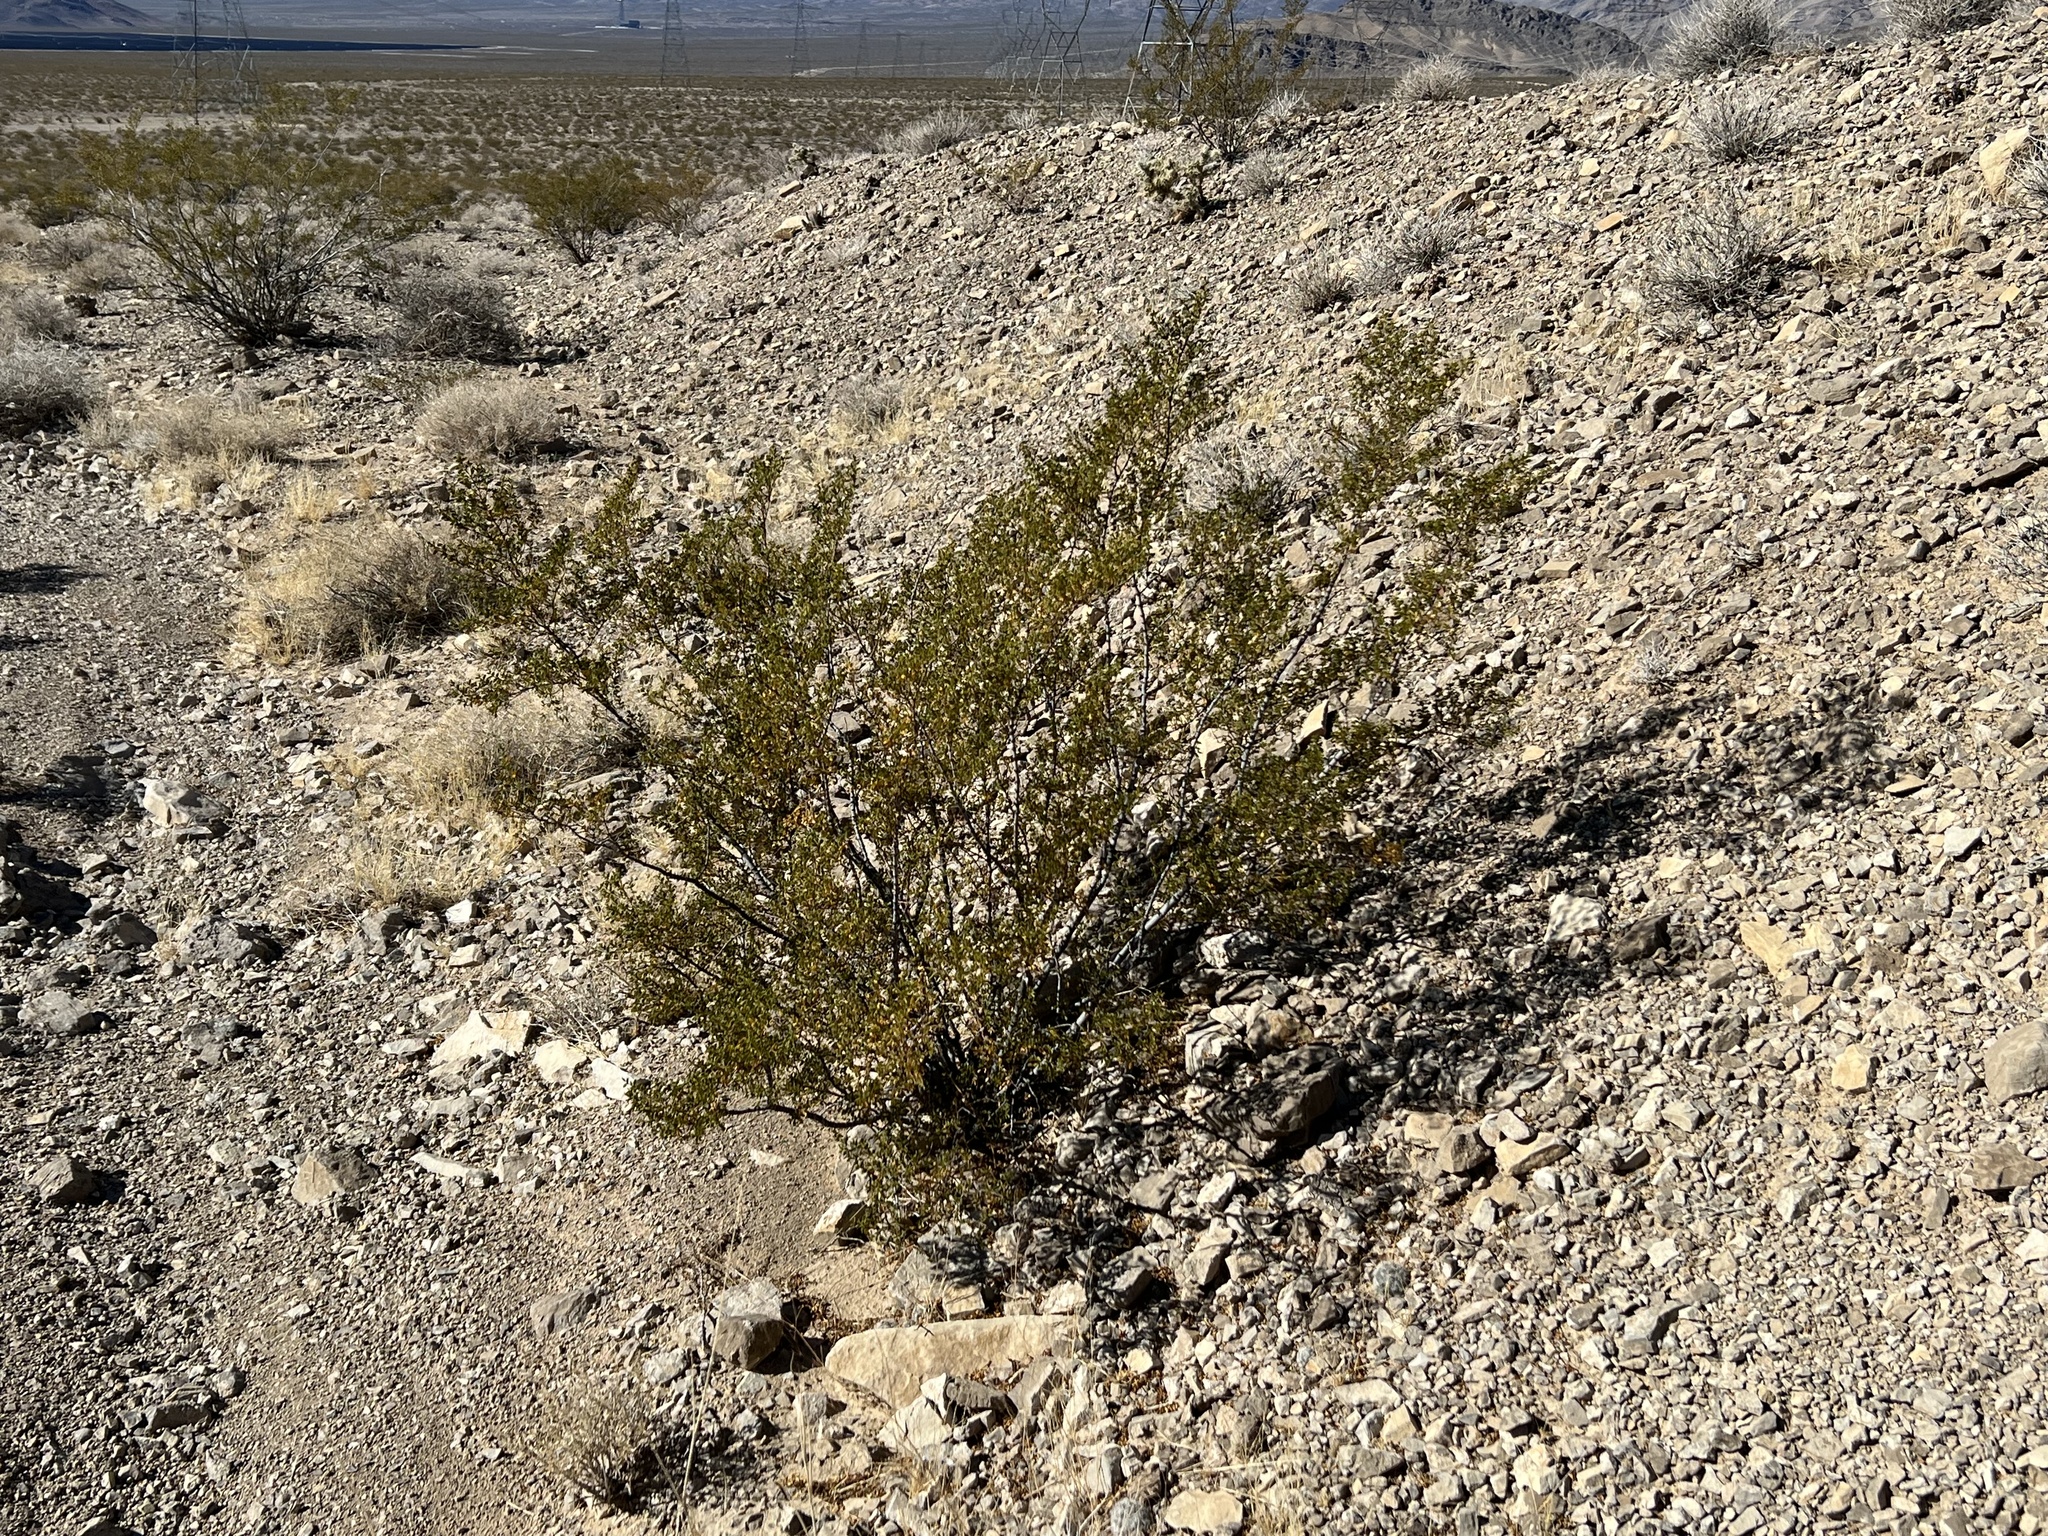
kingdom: Plantae
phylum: Tracheophyta
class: Magnoliopsida
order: Zygophyllales
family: Zygophyllaceae
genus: Larrea
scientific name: Larrea tridentata
